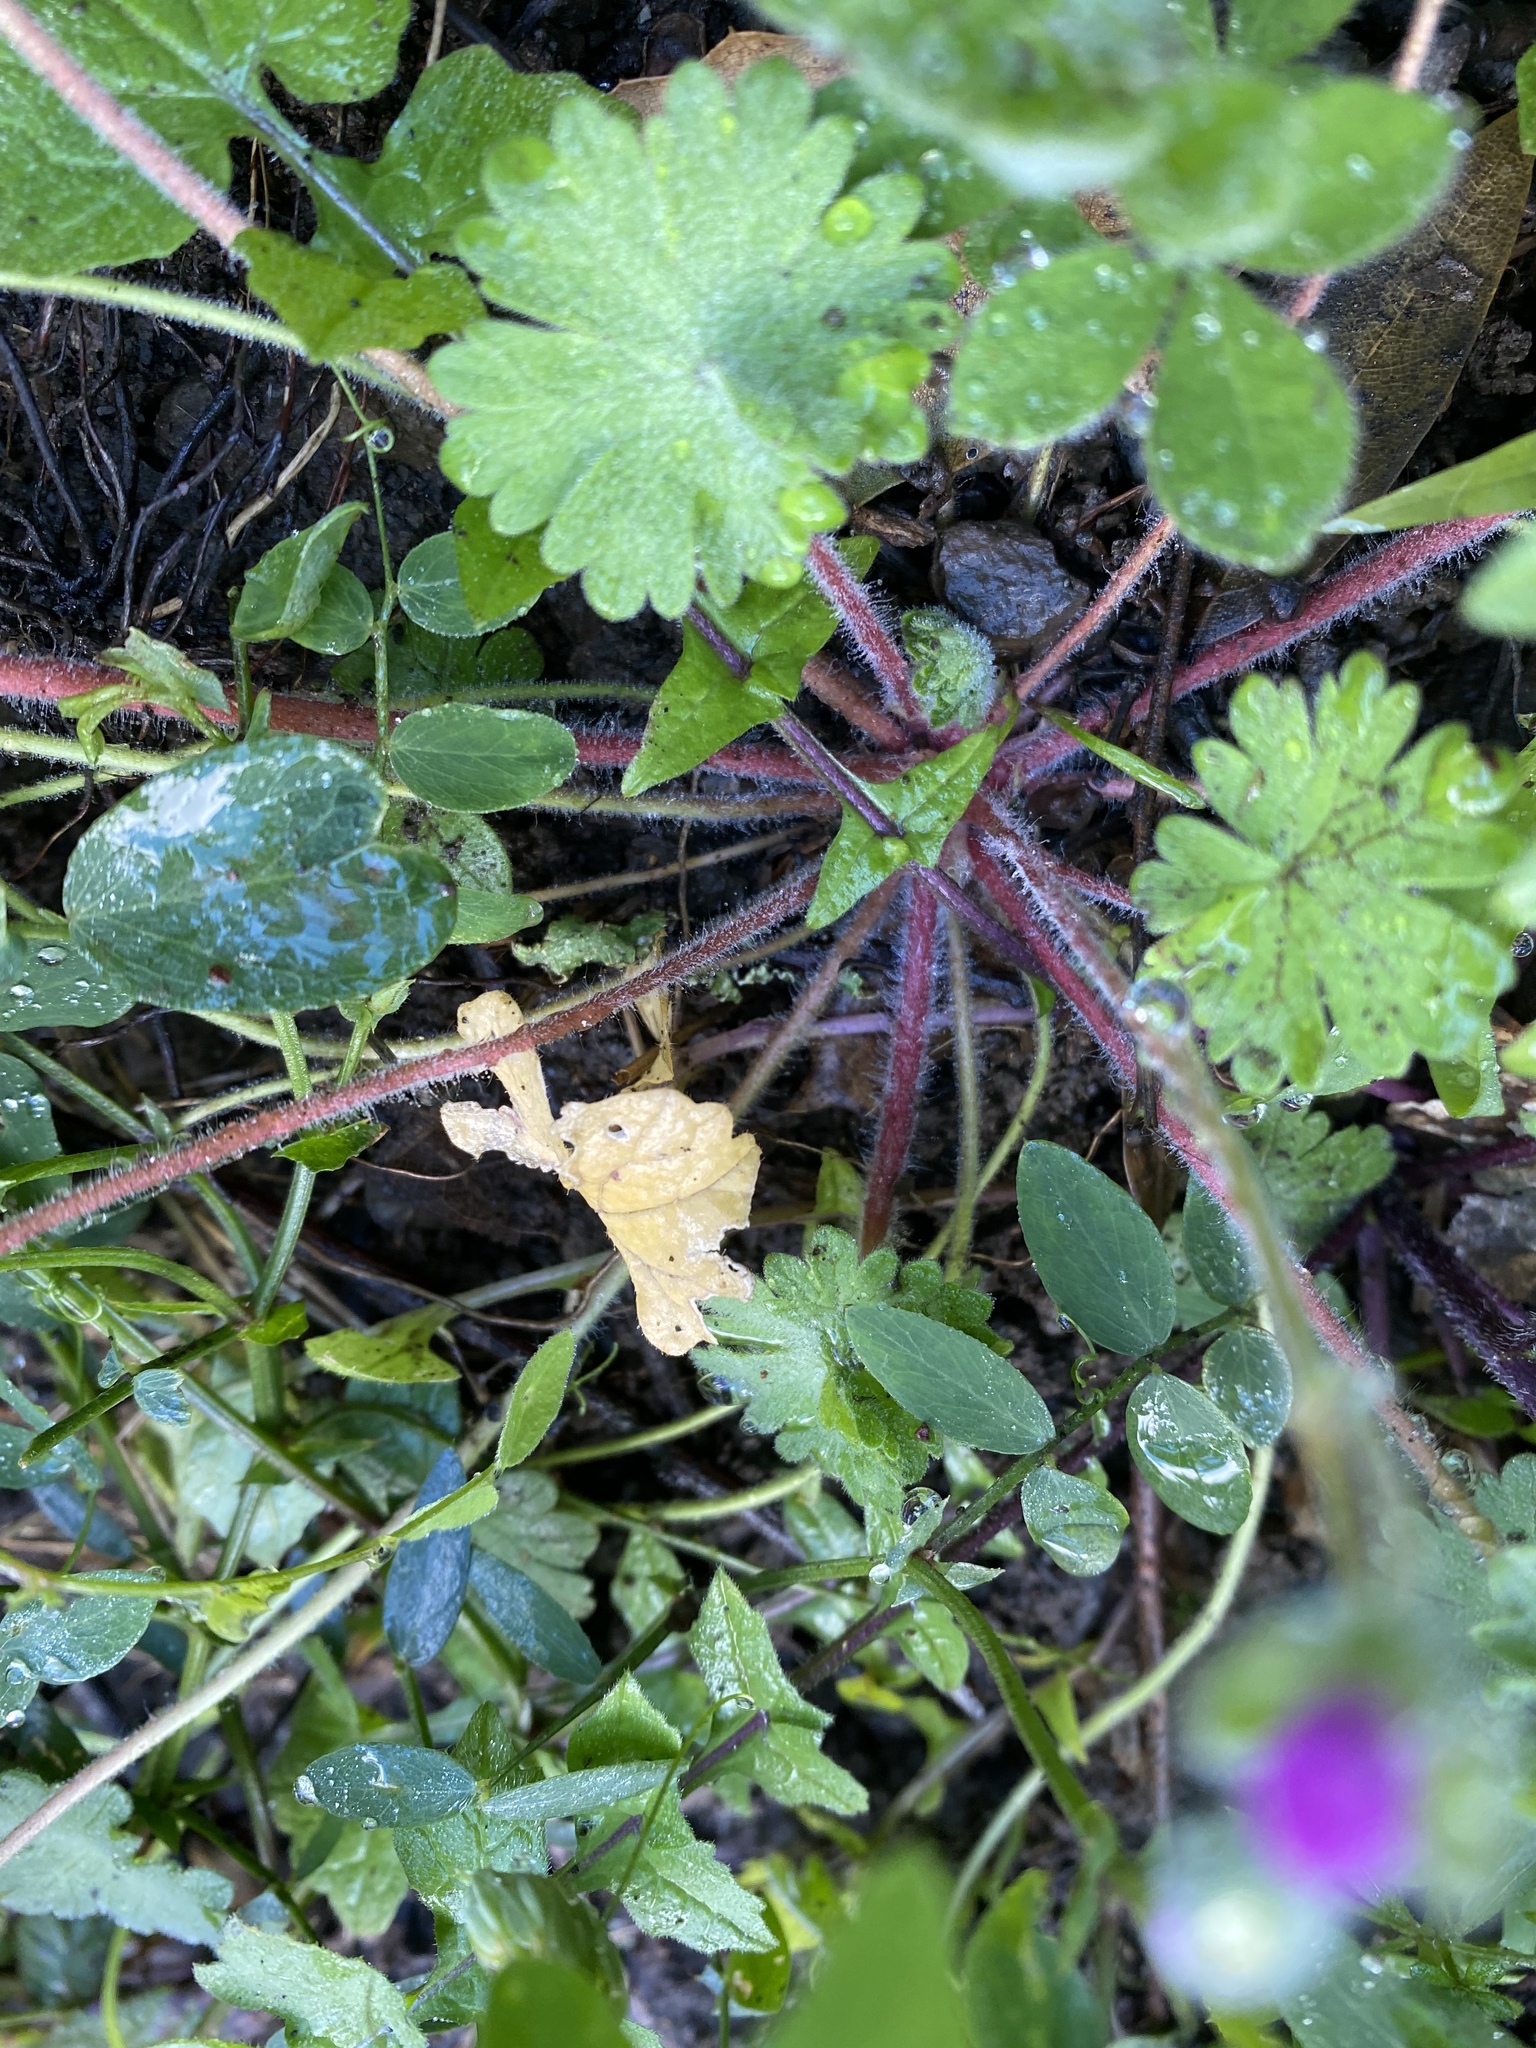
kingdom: Plantae
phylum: Tracheophyta
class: Magnoliopsida
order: Geraniales
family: Geraniaceae
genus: Geranium
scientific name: Geranium molle
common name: Dove's-foot crane's-bill
